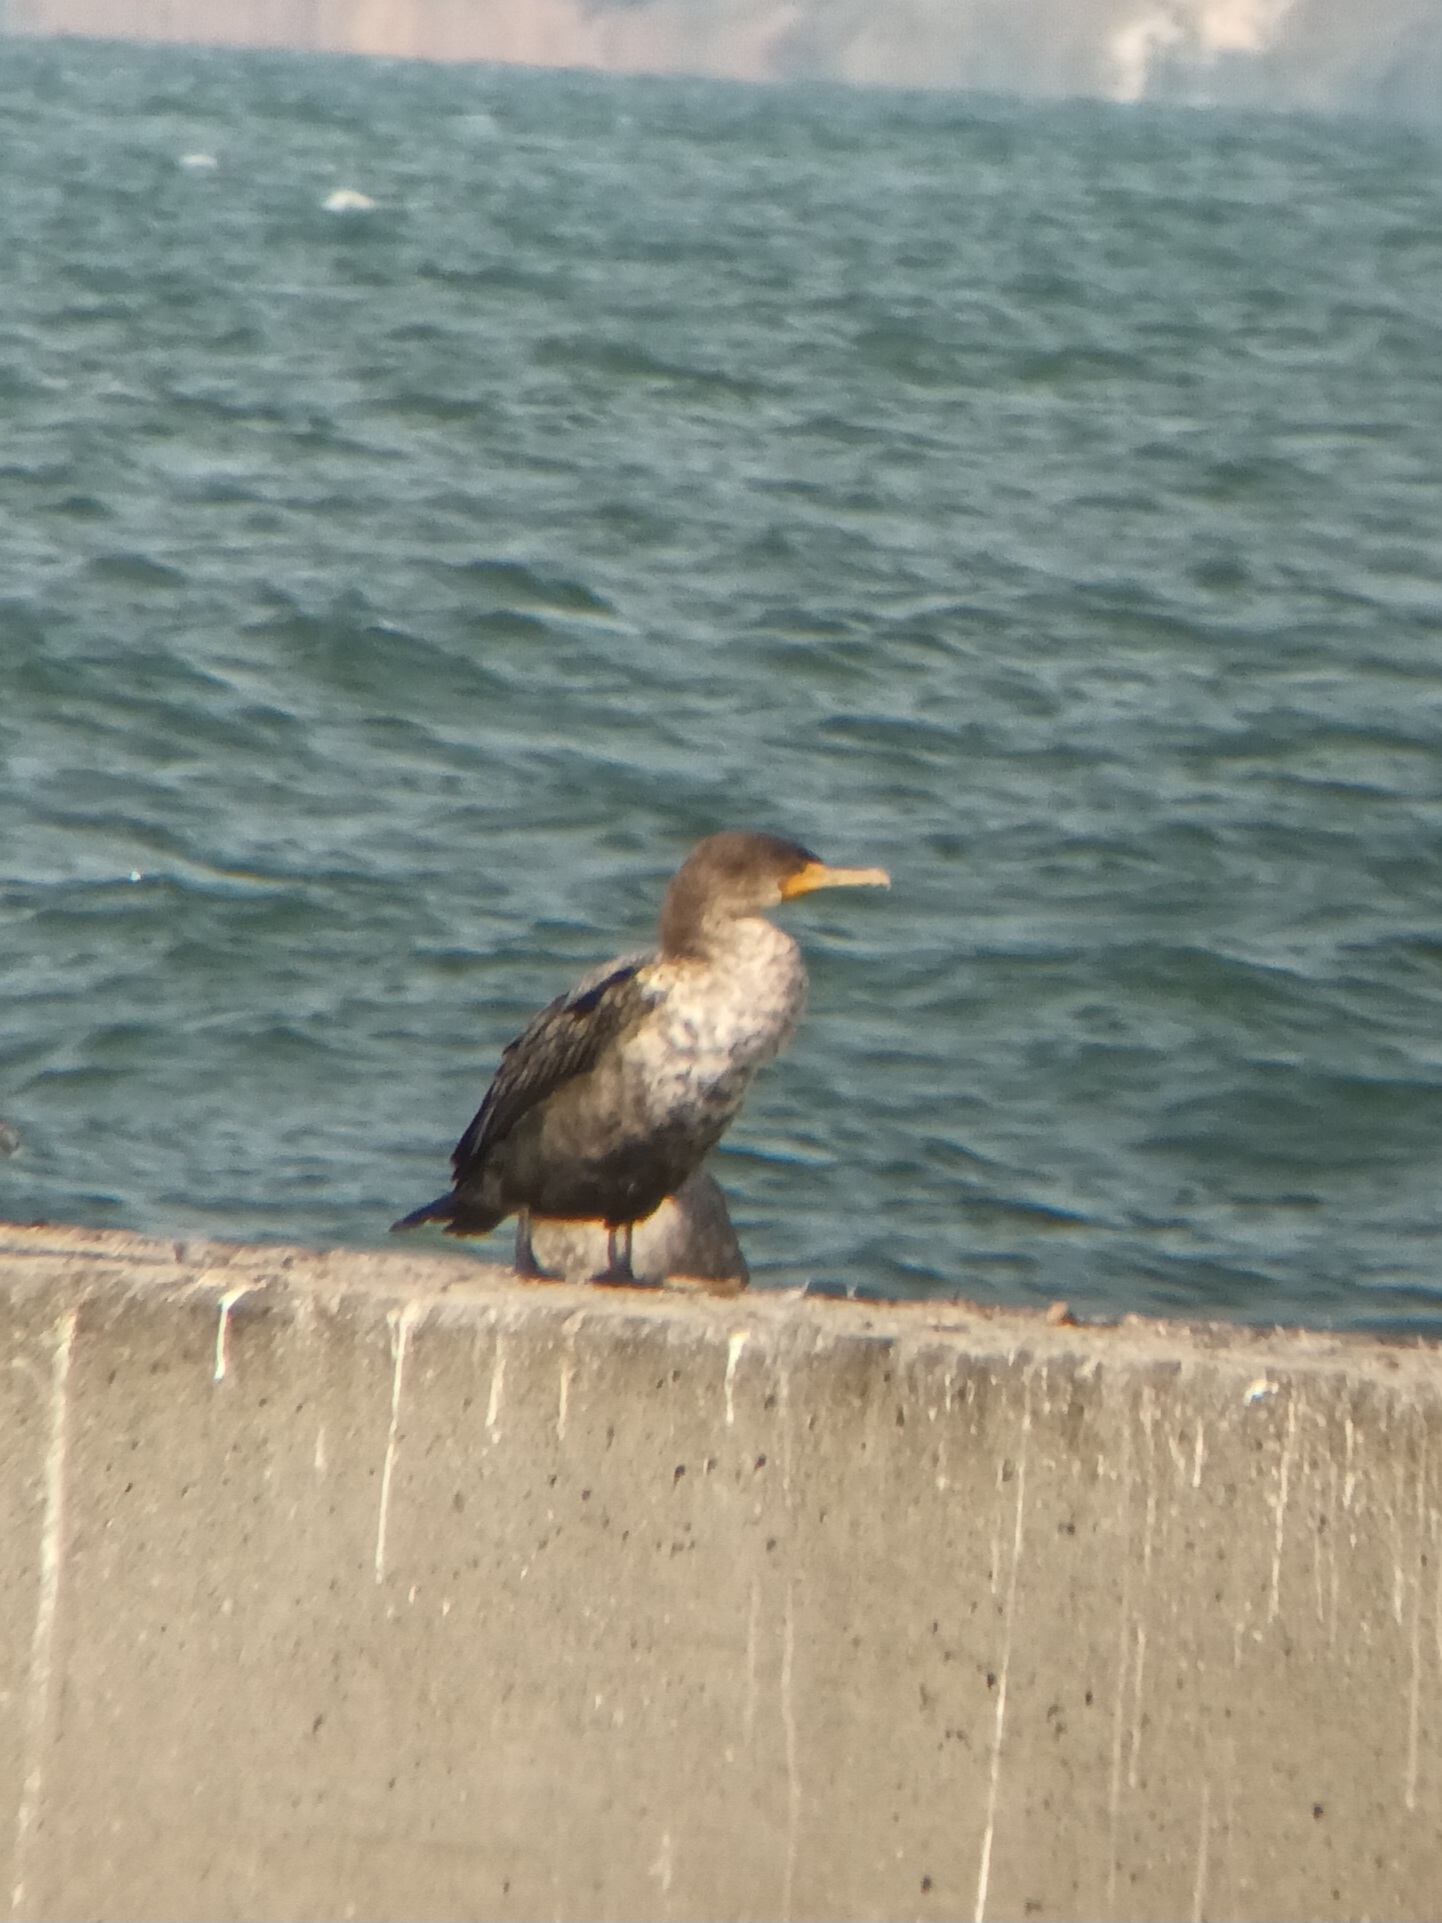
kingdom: Animalia
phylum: Chordata
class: Aves
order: Suliformes
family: Phalacrocoracidae
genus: Phalacrocorax
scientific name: Phalacrocorax auritus
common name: Double-crested cormorant
